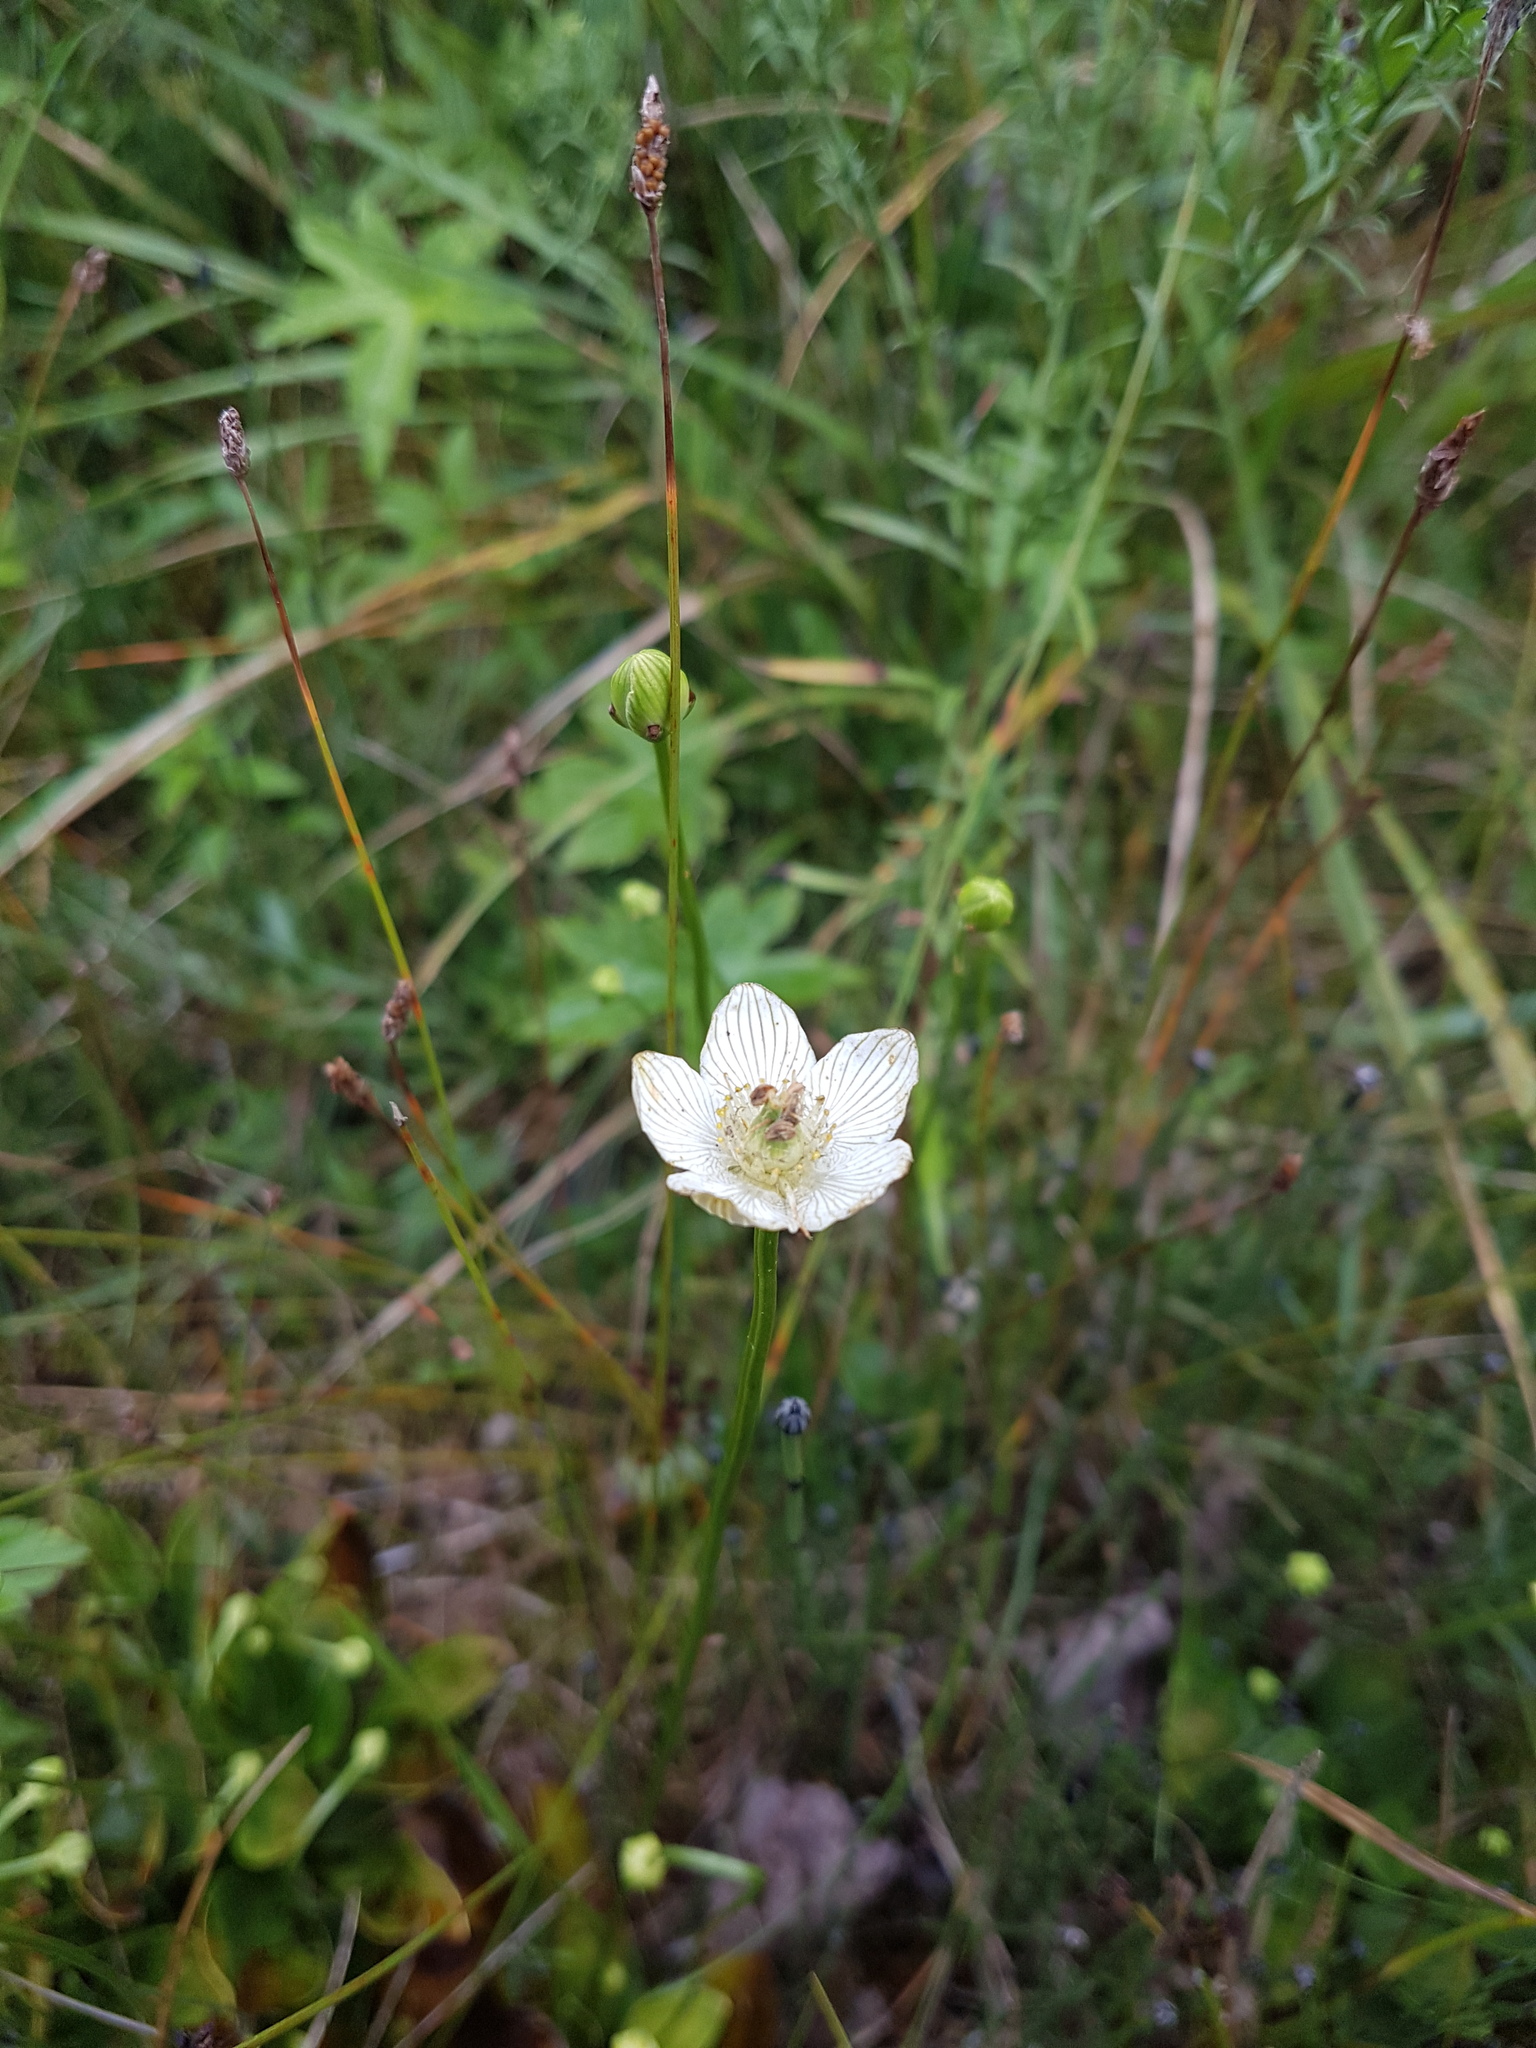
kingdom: Plantae
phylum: Tracheophyta
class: Magnoliopsida
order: Celastrales
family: Parnassiaceae
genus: Parnassia
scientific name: Parnassia glauca
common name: American grass-of-parnassus
